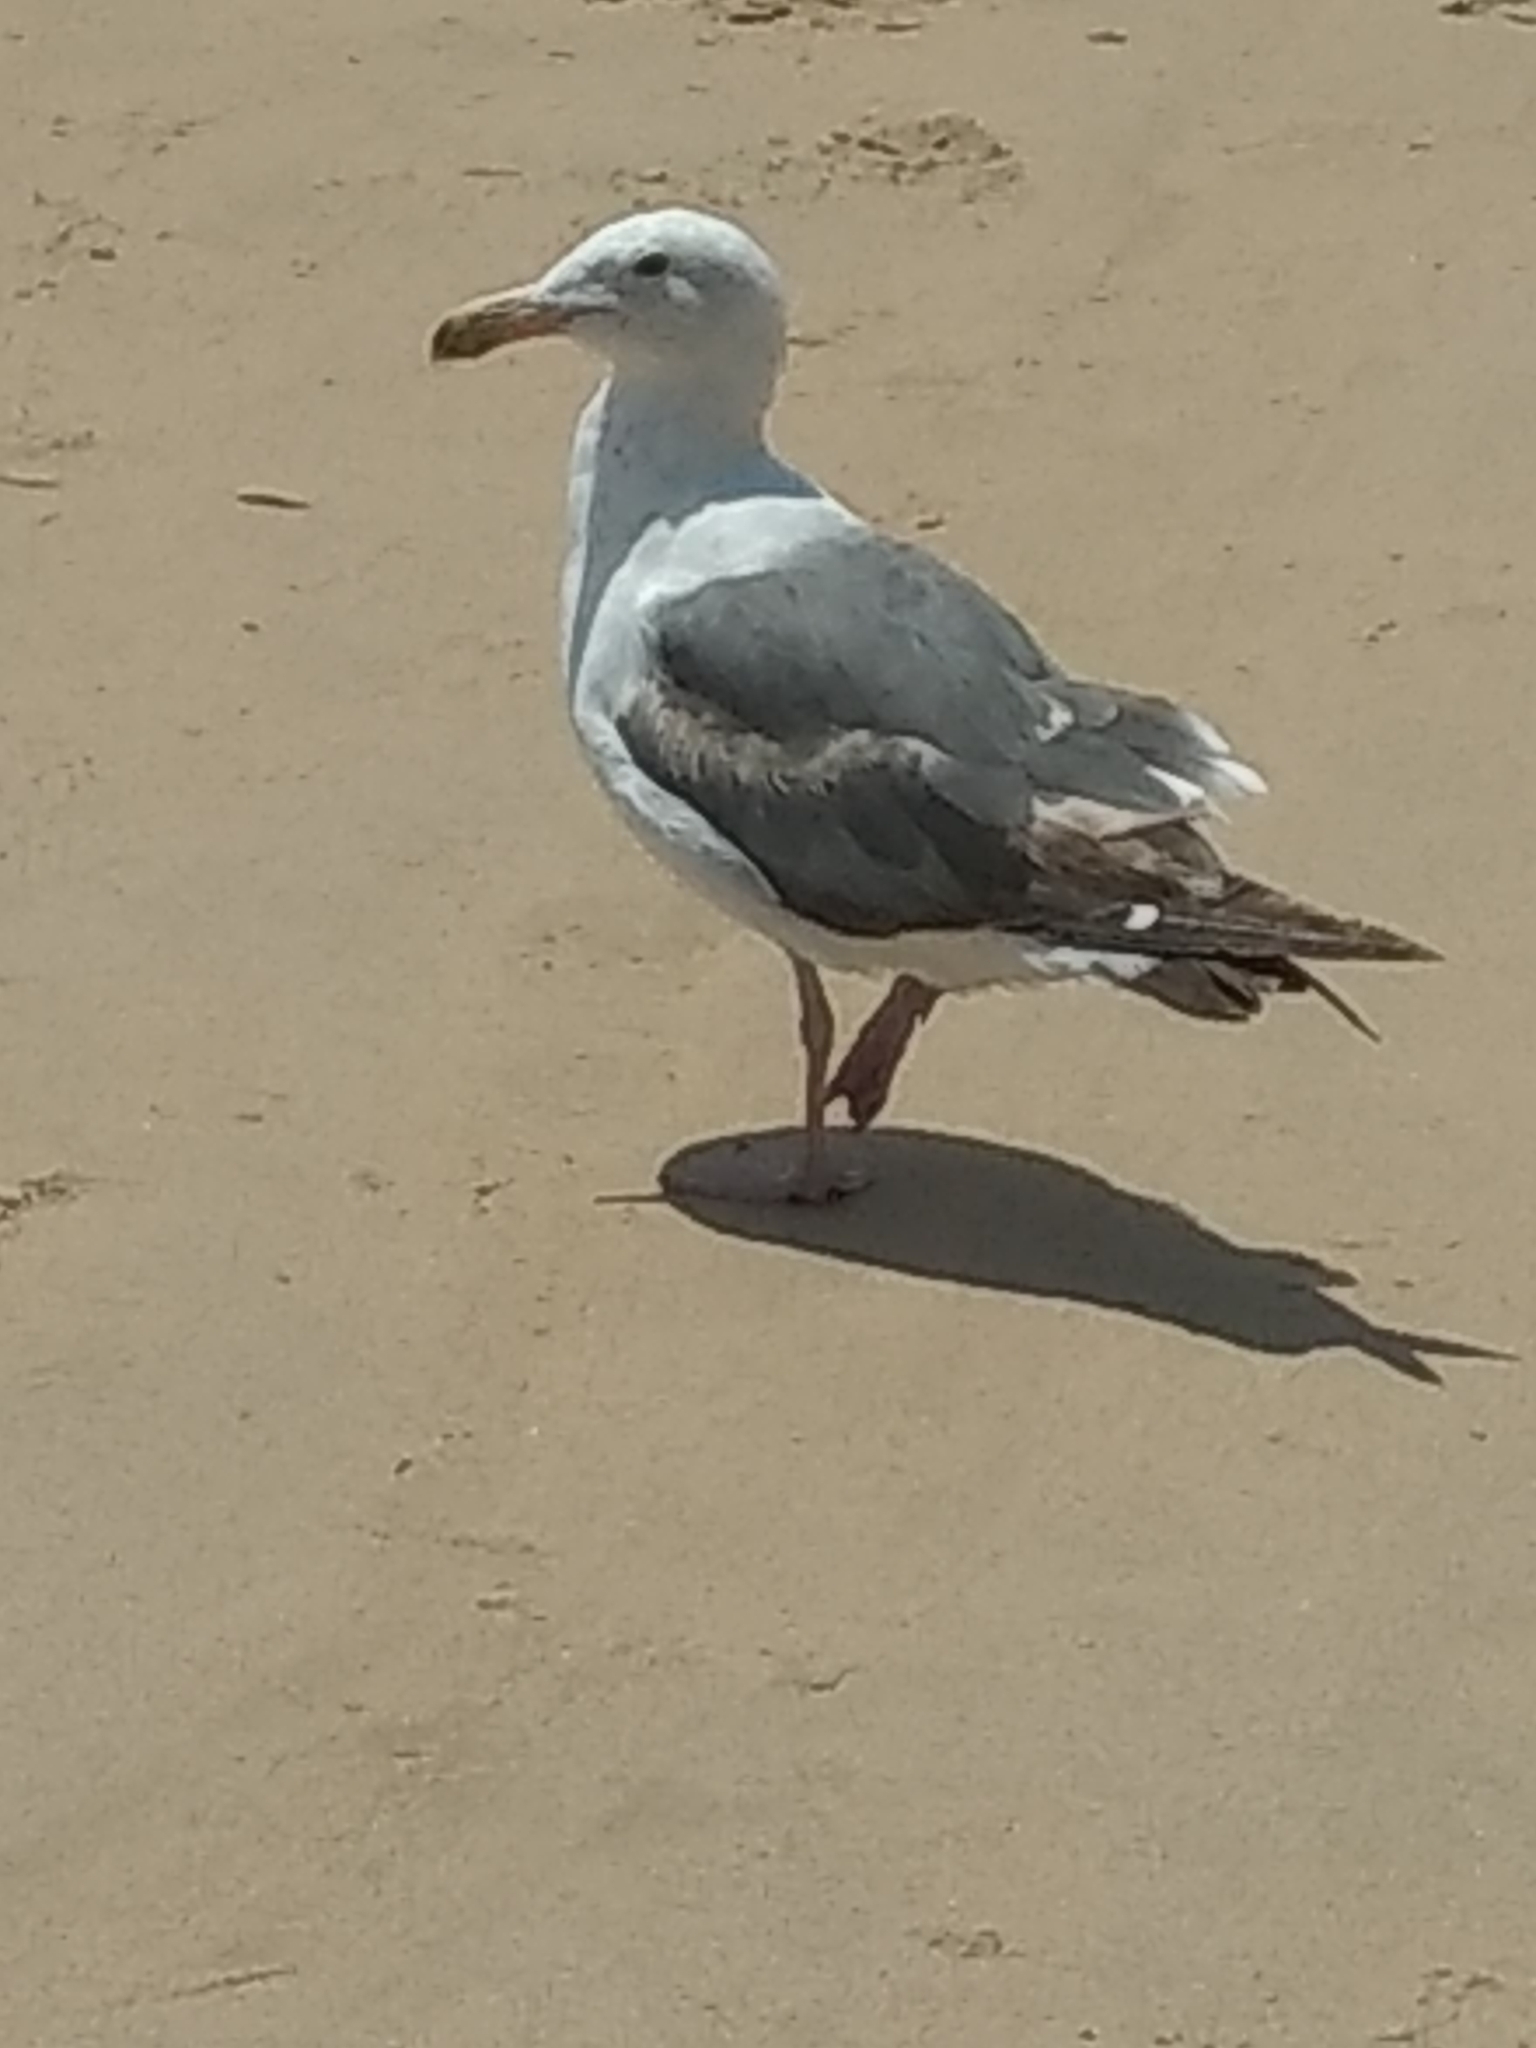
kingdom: Animalia
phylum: Chordata
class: Aves
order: Charadriiformes
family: Laridae
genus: Larus
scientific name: Larus occidentalis
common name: Western gull
